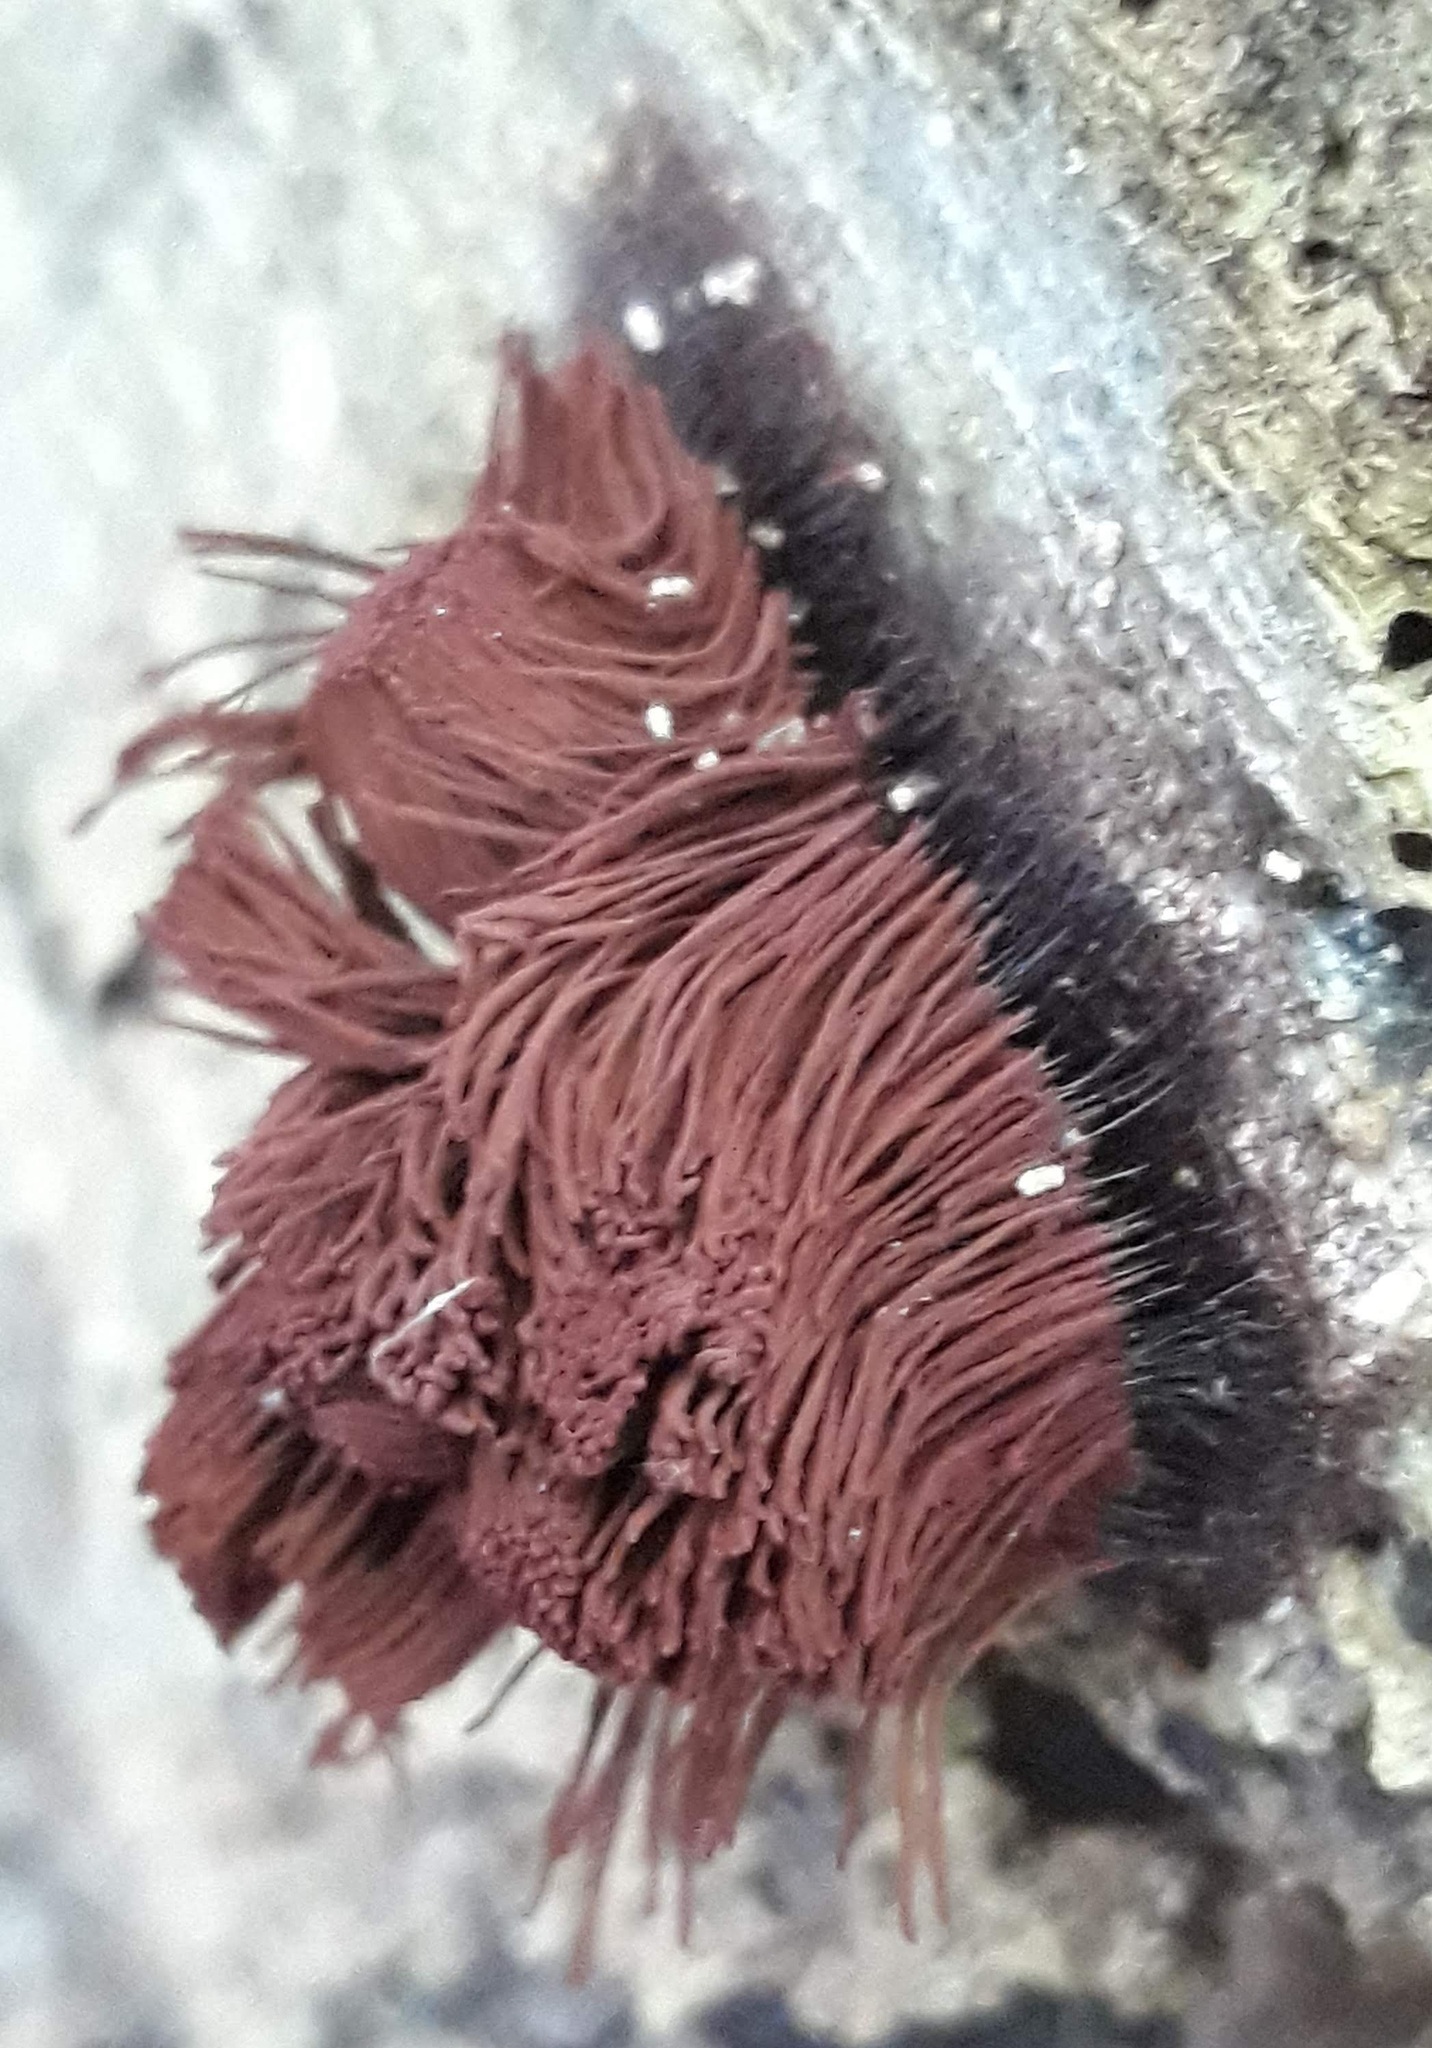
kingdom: Protozoa
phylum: Mycetozoa
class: Myxomycetes
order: Stemonitidales
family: Stemonitidaceae
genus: Stemonitis
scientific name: Stemonitis
